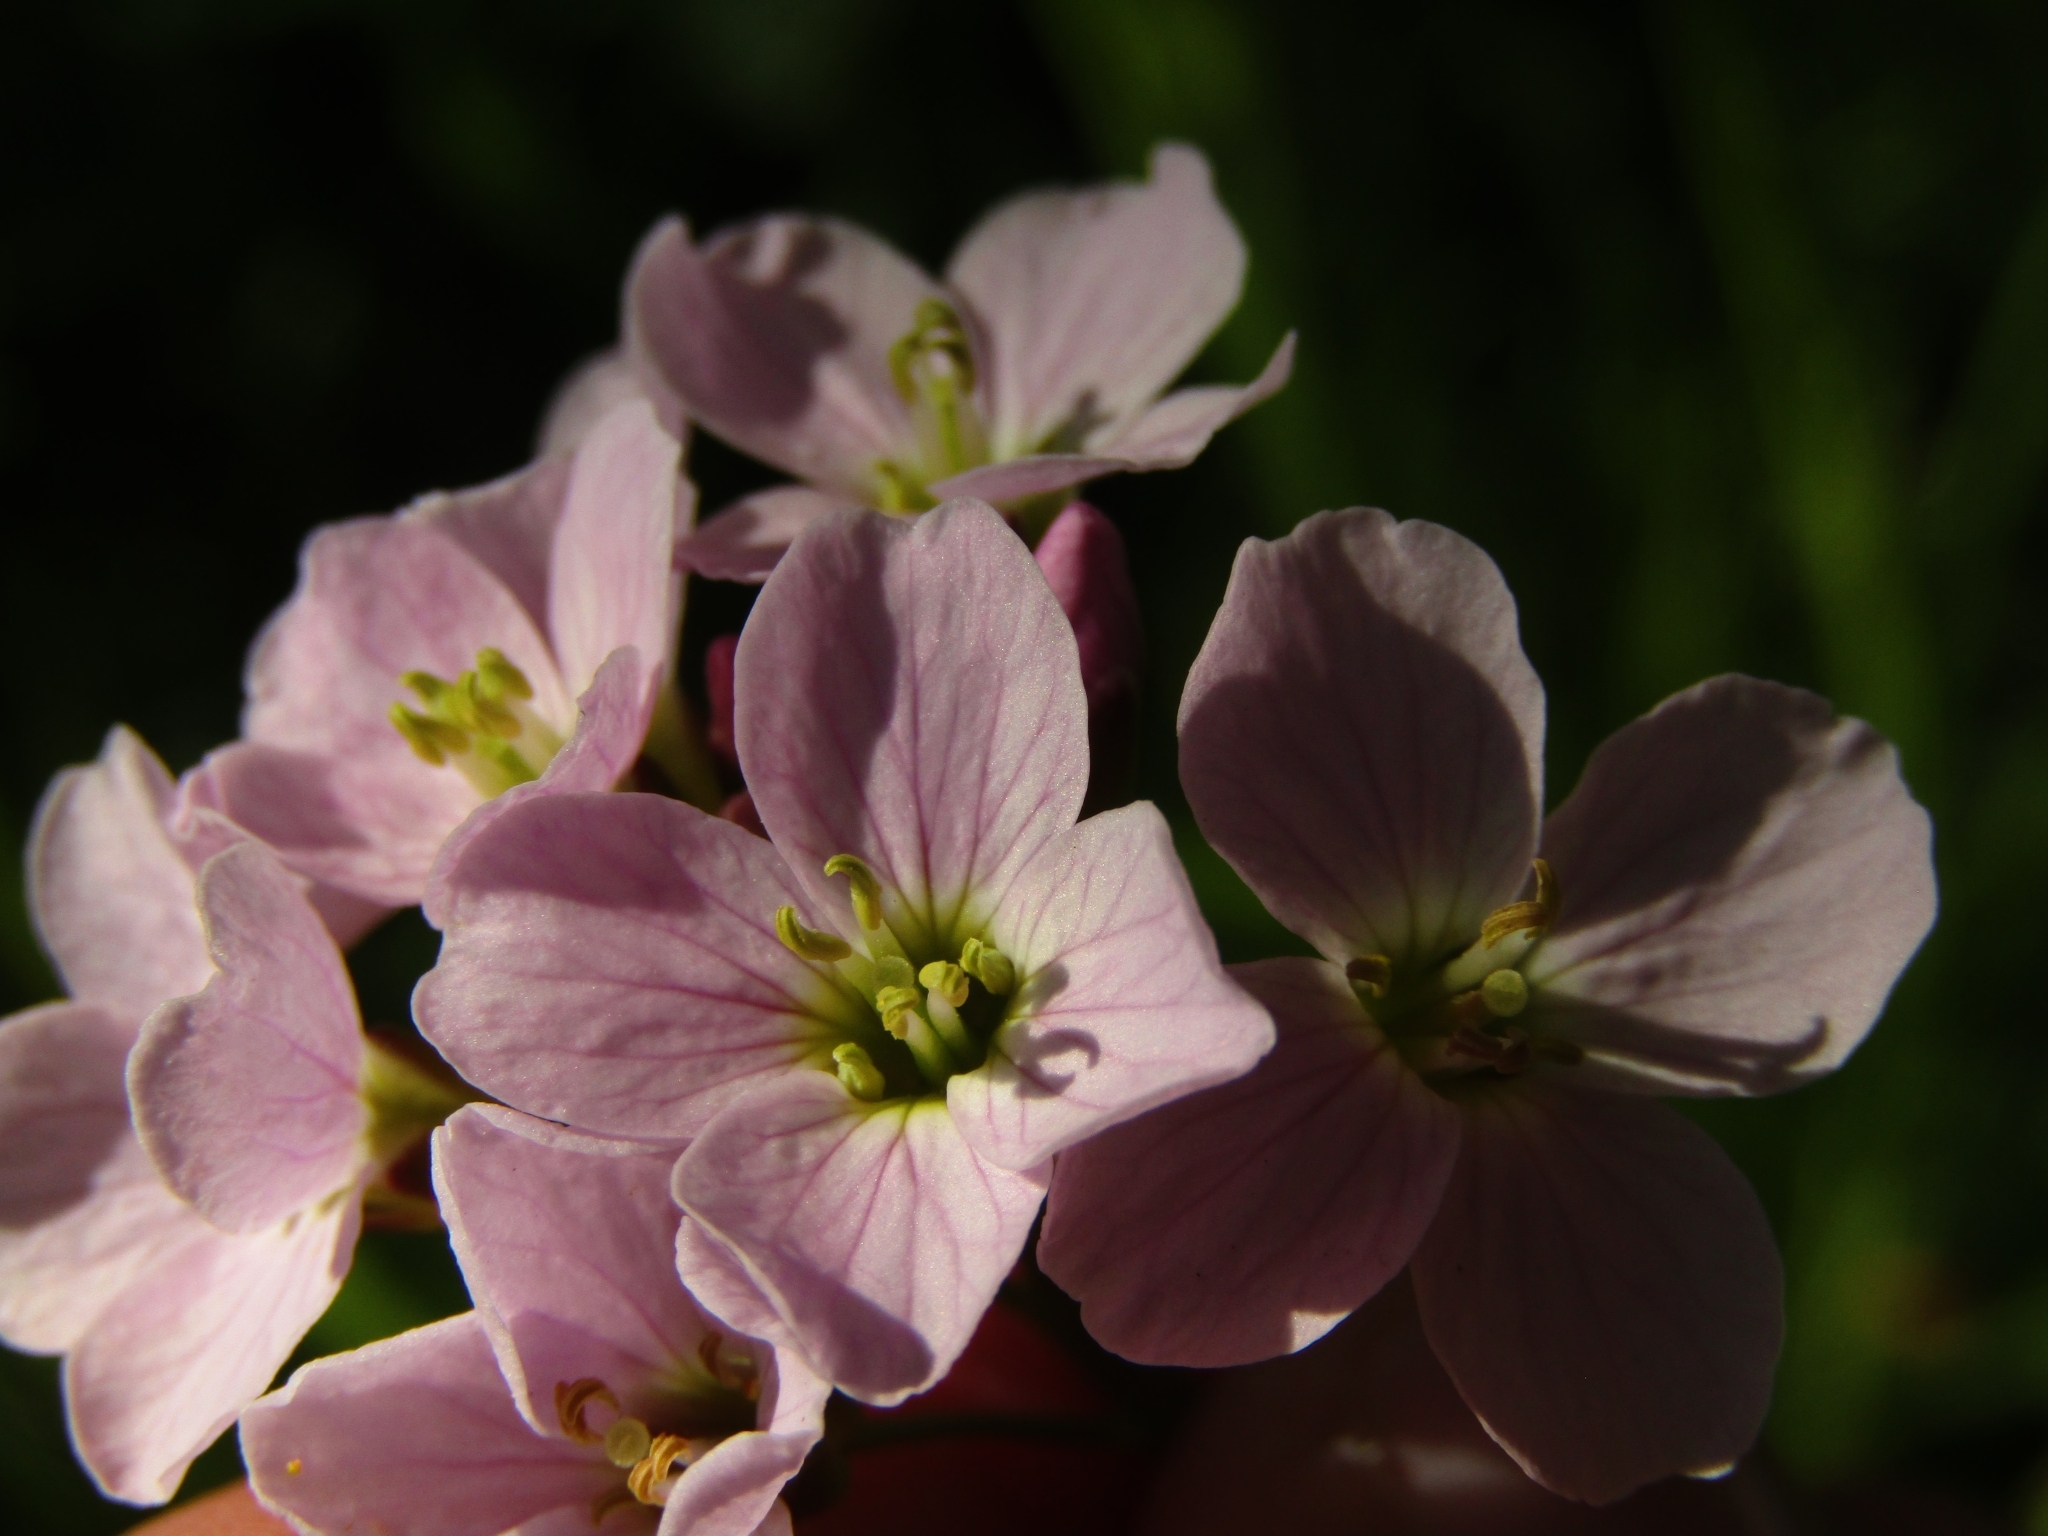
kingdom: Plantae
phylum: Tracheophyta
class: Magnoliopsida
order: Brassicales
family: Brassicaceae
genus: Cardamine
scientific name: Cardamine pratensis
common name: Cuckoo flower
